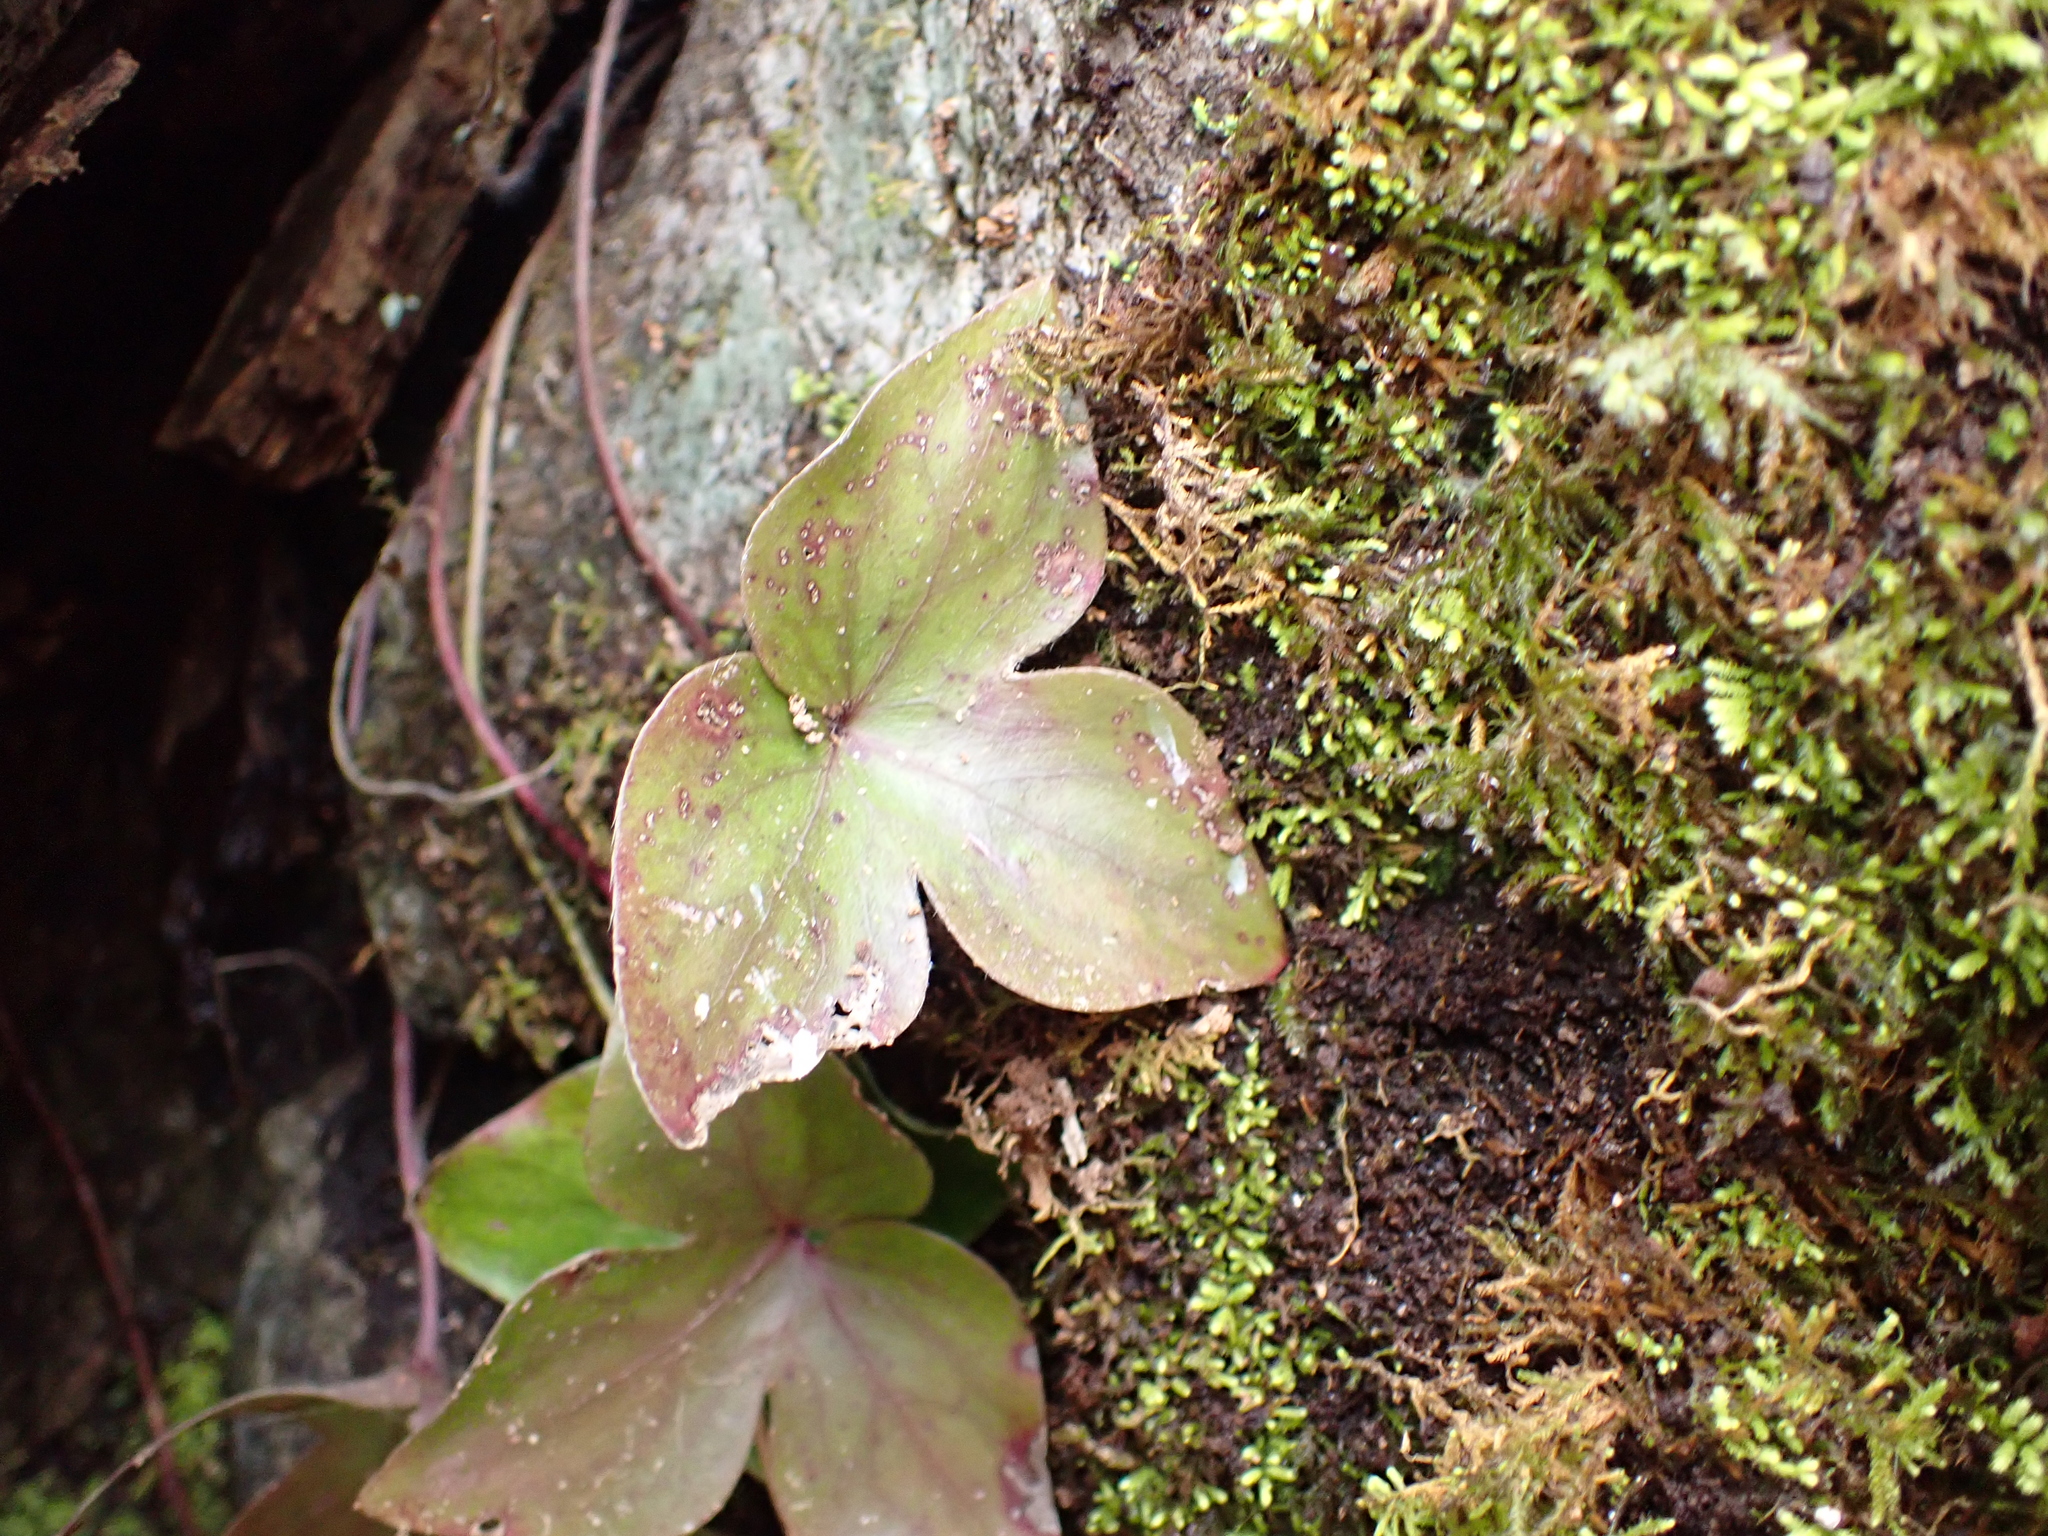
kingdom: Plantae
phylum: Tracheophyta
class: Magnoliopsida
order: Ranunculales
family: Ranunculaceae
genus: Hepatica
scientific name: Hepatica acutiloba
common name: Sharp-lobed hepatica
